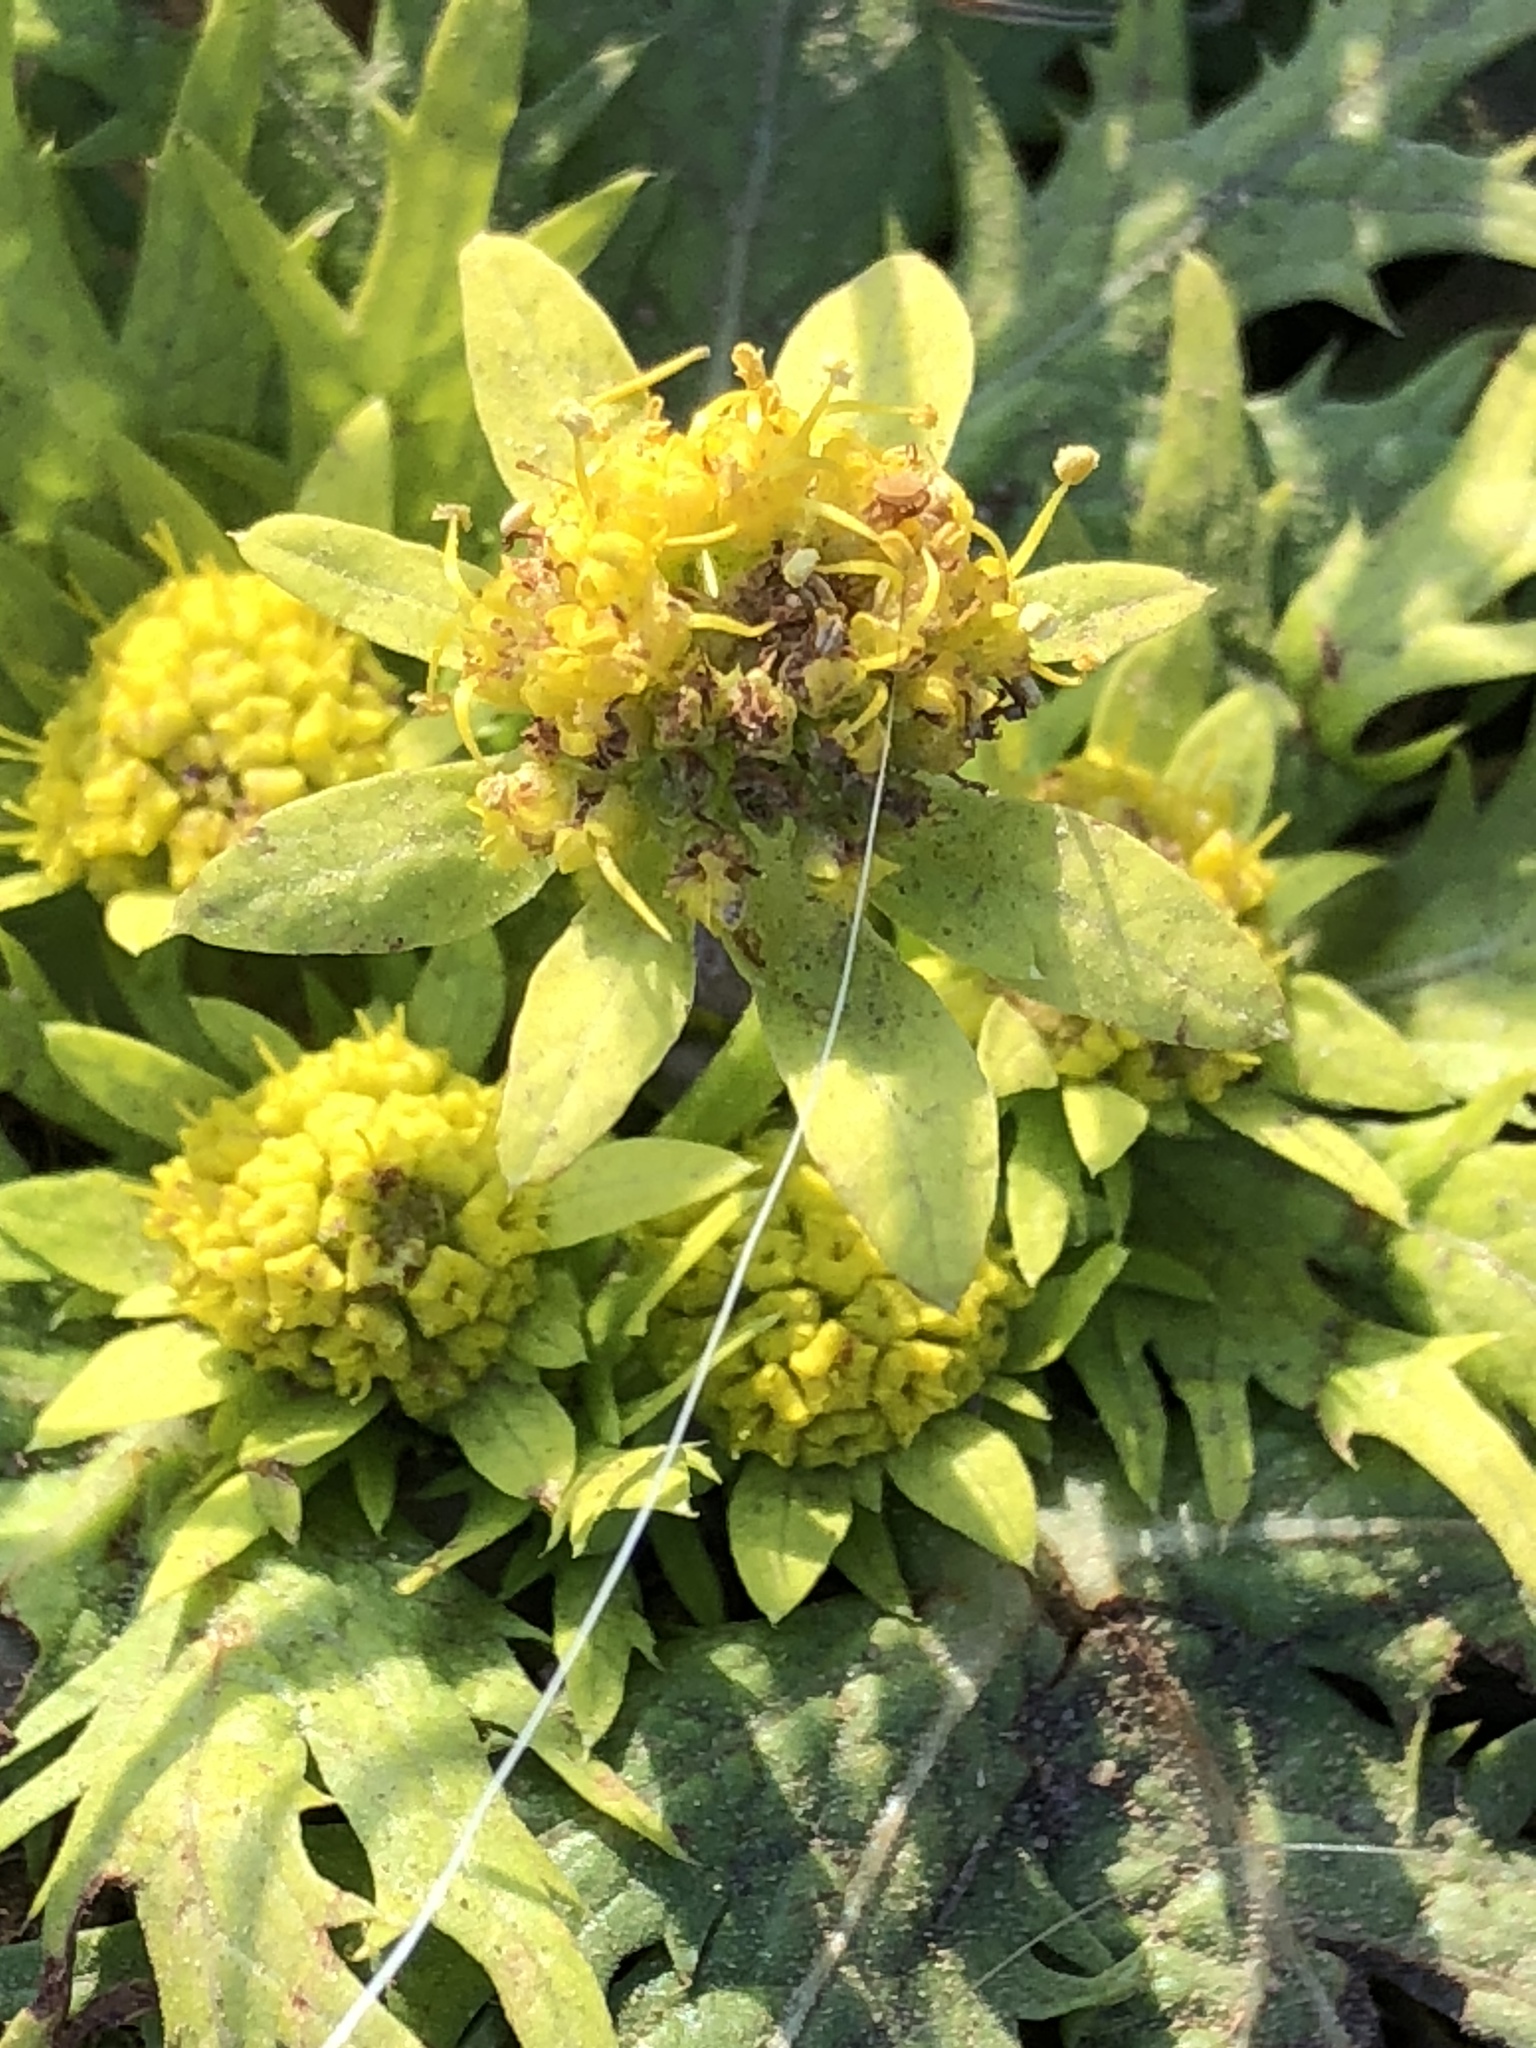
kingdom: Plantae
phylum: Tracheophyta
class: Magnoliopsida
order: Apiales
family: Apiaceae
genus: Sanicula
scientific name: Sanicula arctopoides
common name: Footsteps-of-spring
